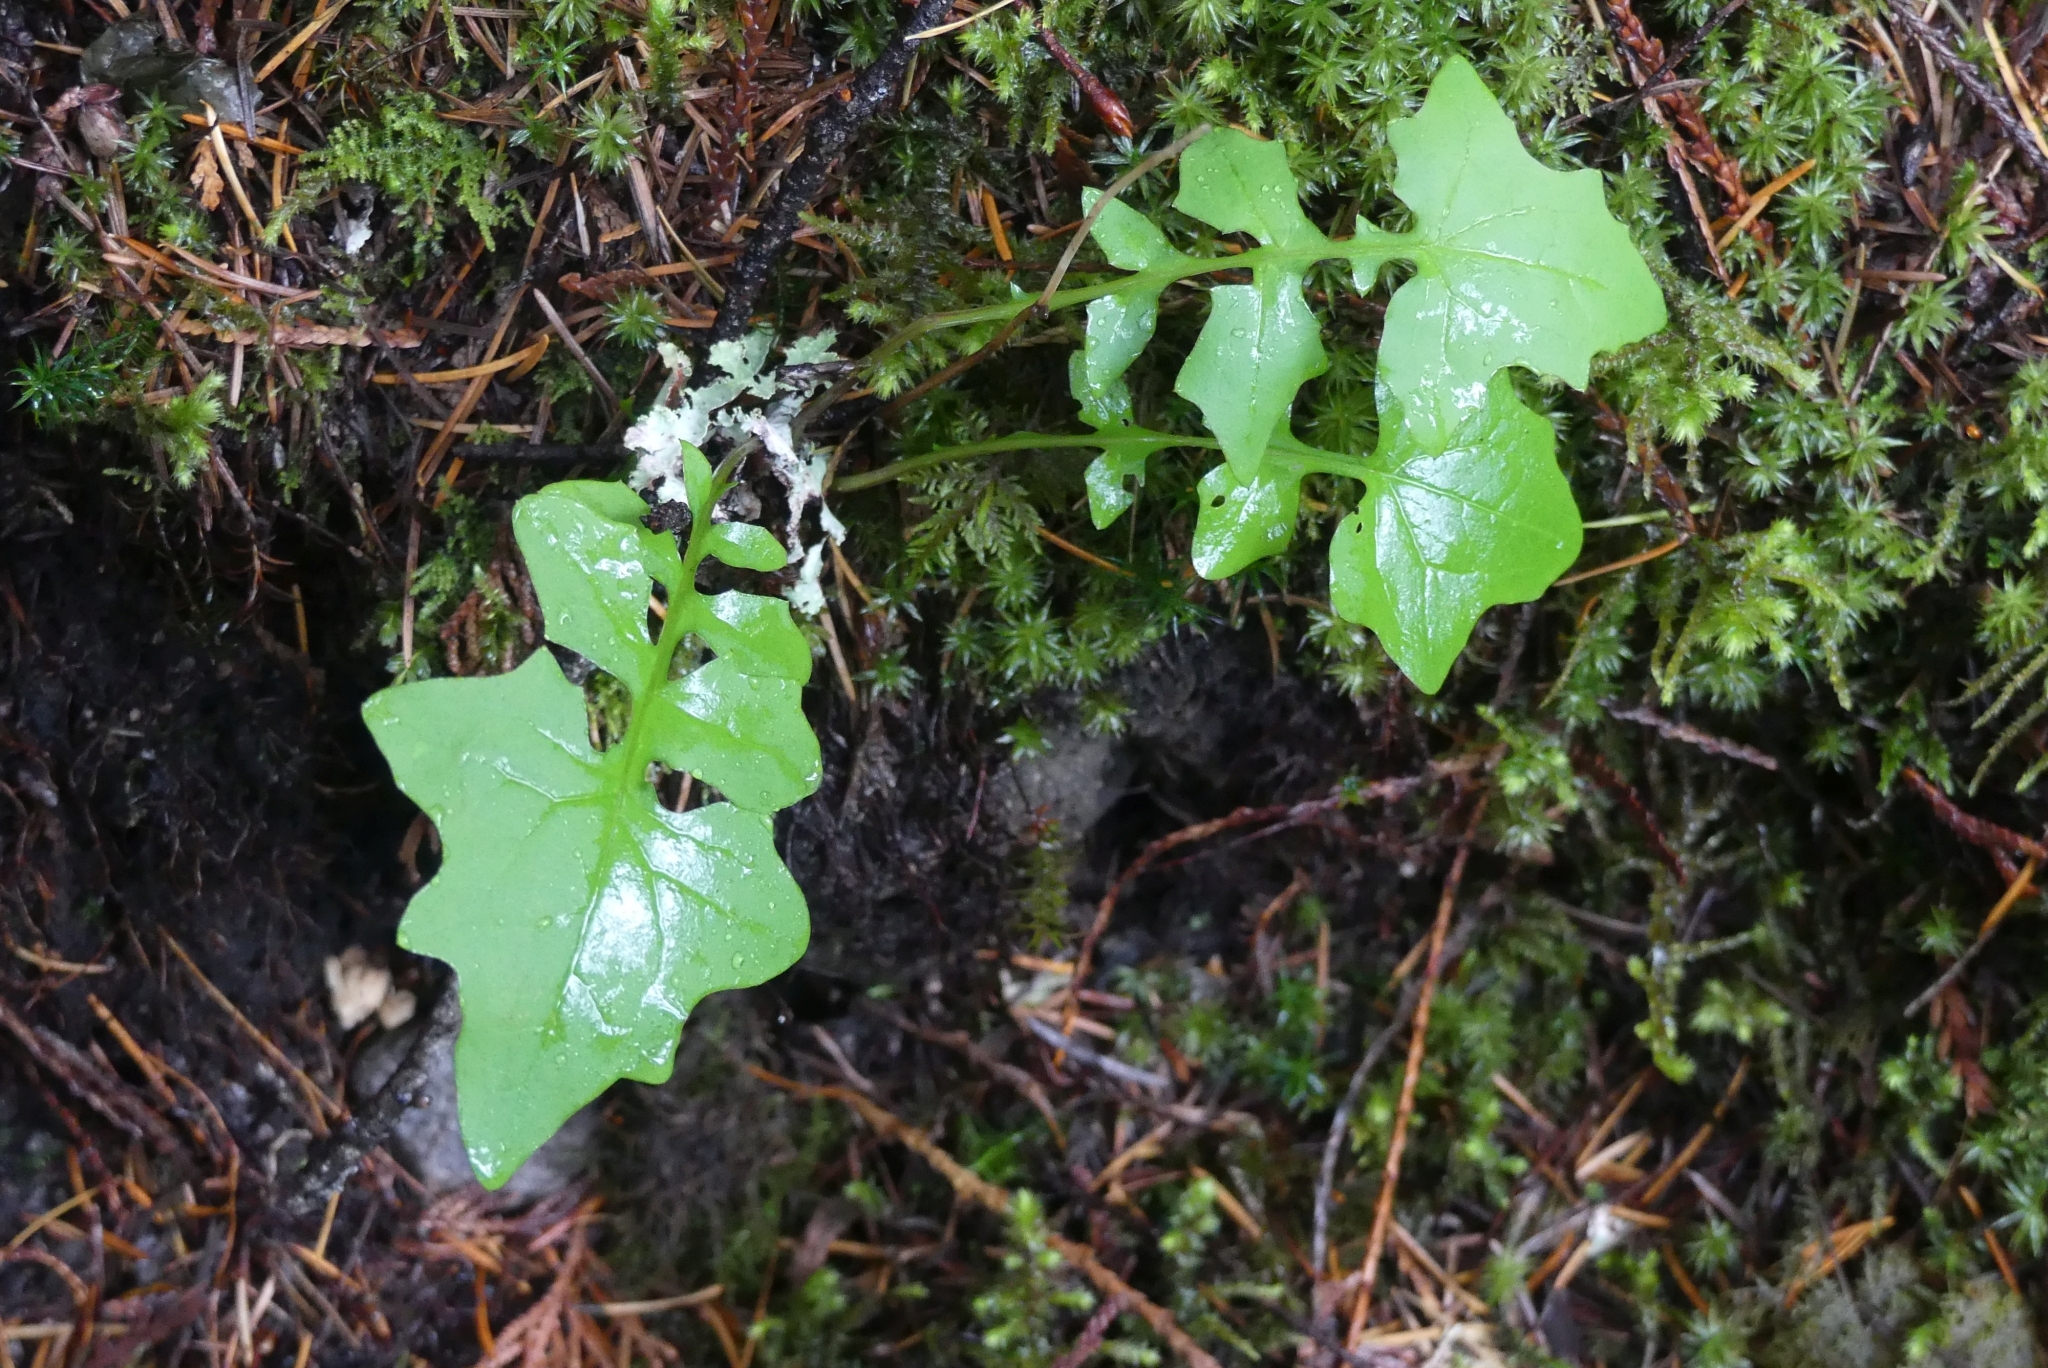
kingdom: Plantae
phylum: Tracheophyta
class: Magnoliopsida
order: Asterales
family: Asteraceae
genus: Mycelis
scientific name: Mycelis muralis
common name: Wall lettuce
